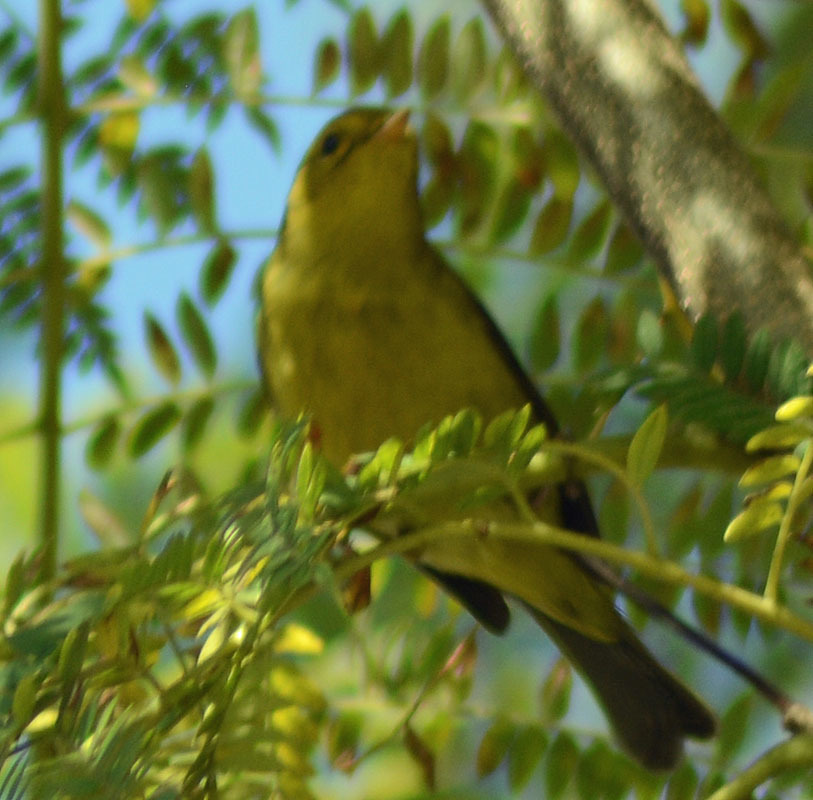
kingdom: Animalia
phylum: Chordata
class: Aves
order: Passeriformes
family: Parulidae
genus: Cardellina
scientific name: Cardellina pusilla
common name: Wilson's warbler
